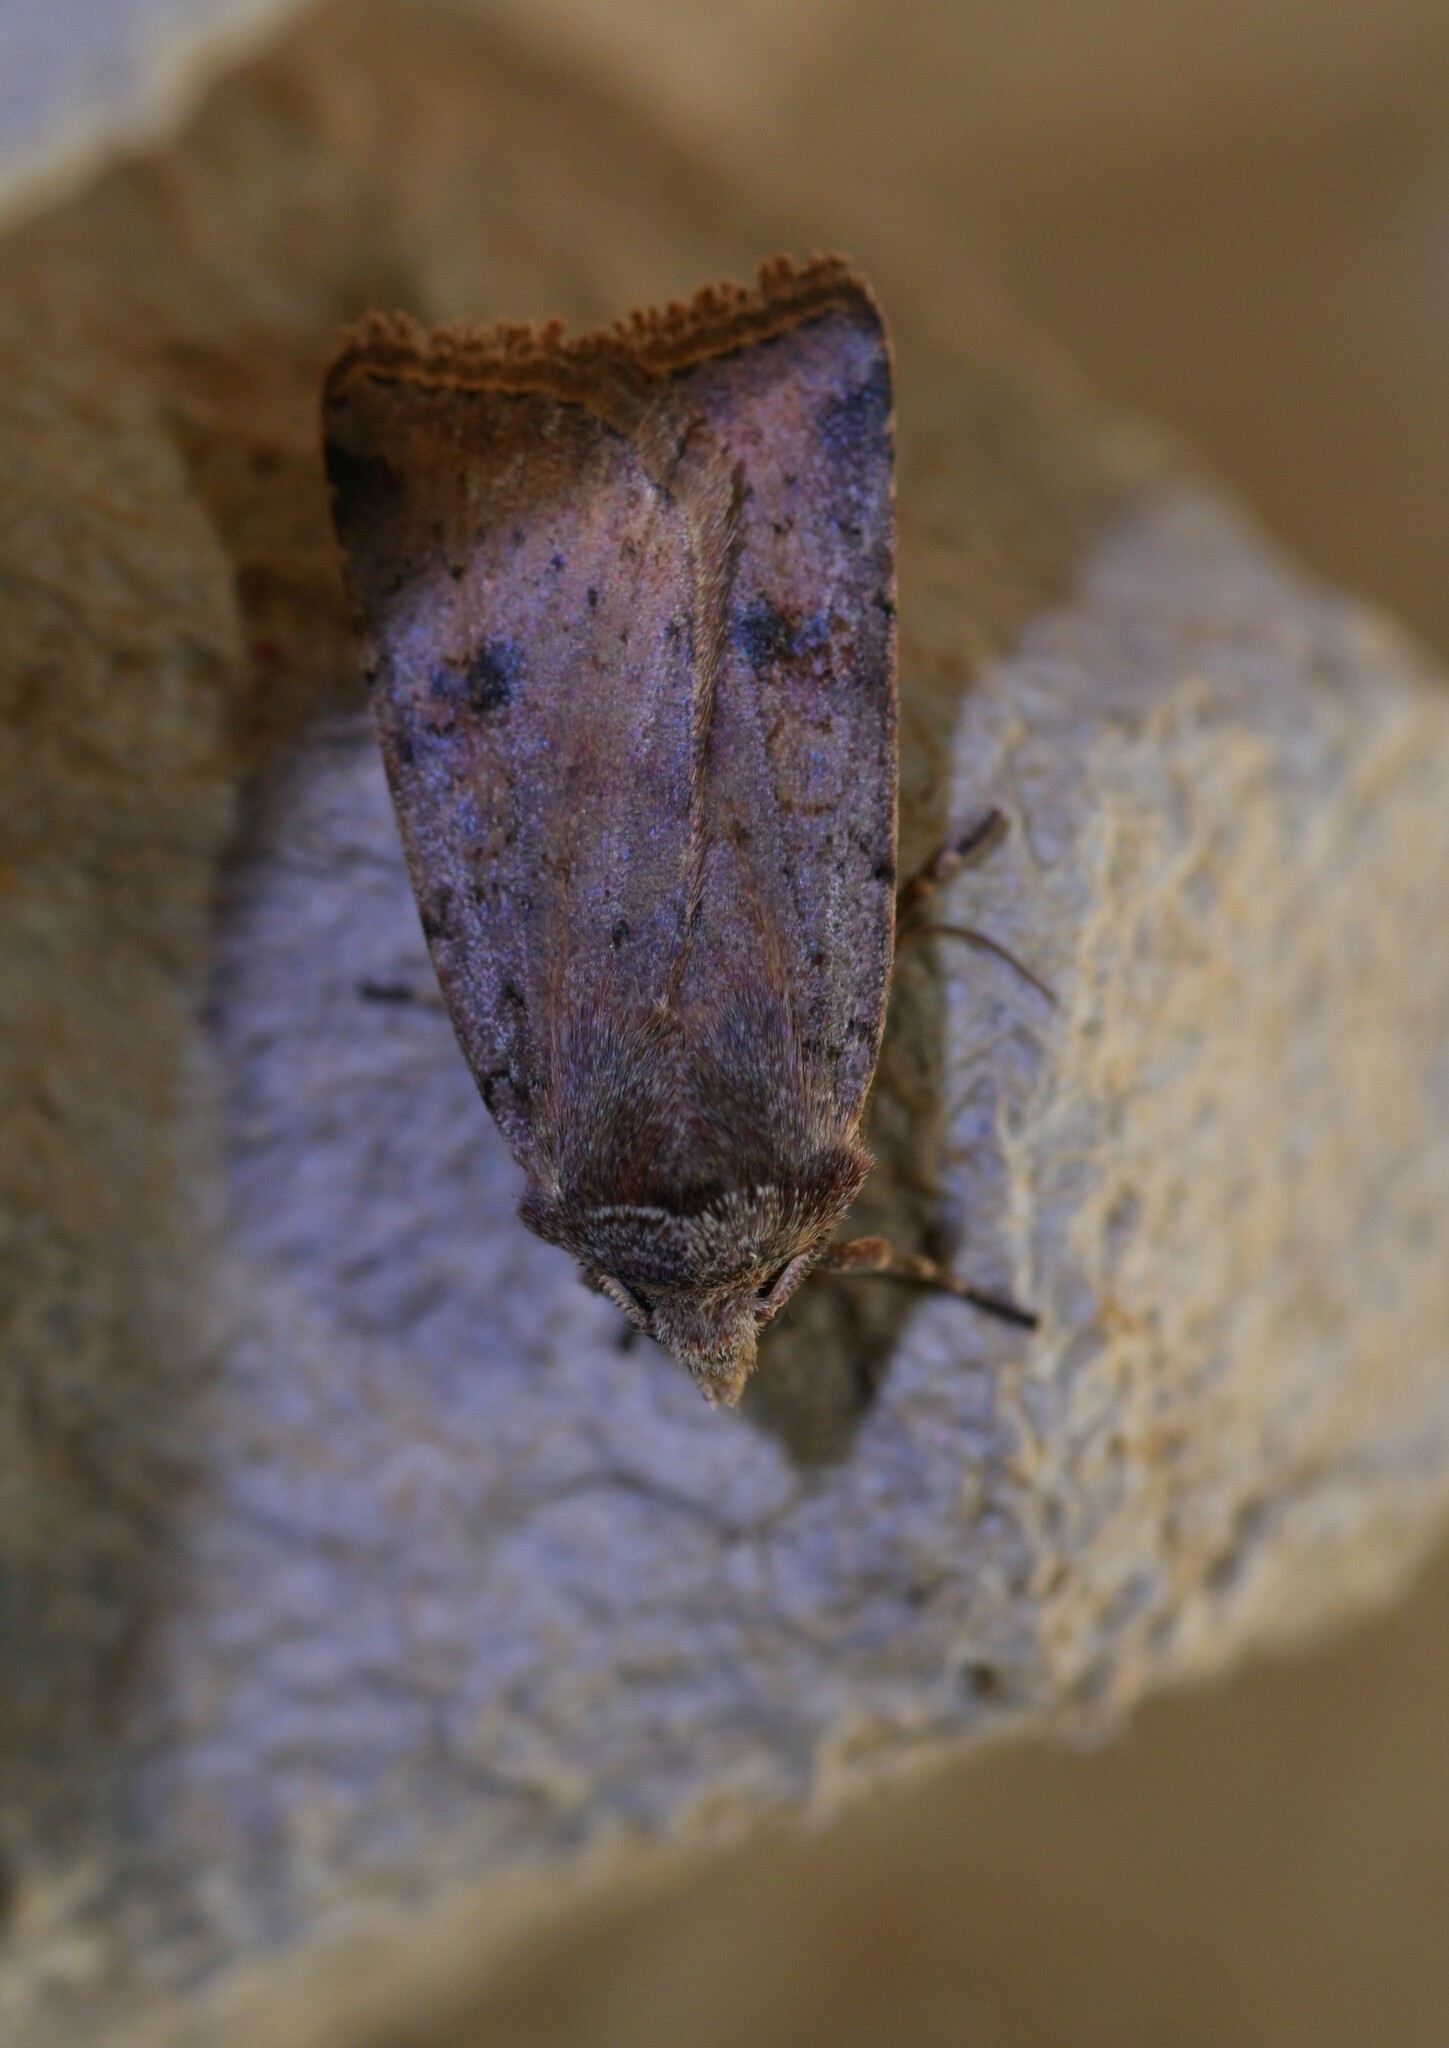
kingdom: Animalia
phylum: Arthropoda
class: Insecta
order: Lepidoptera
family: Noctuidae
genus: Cerastis
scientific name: Cerastis faceta
